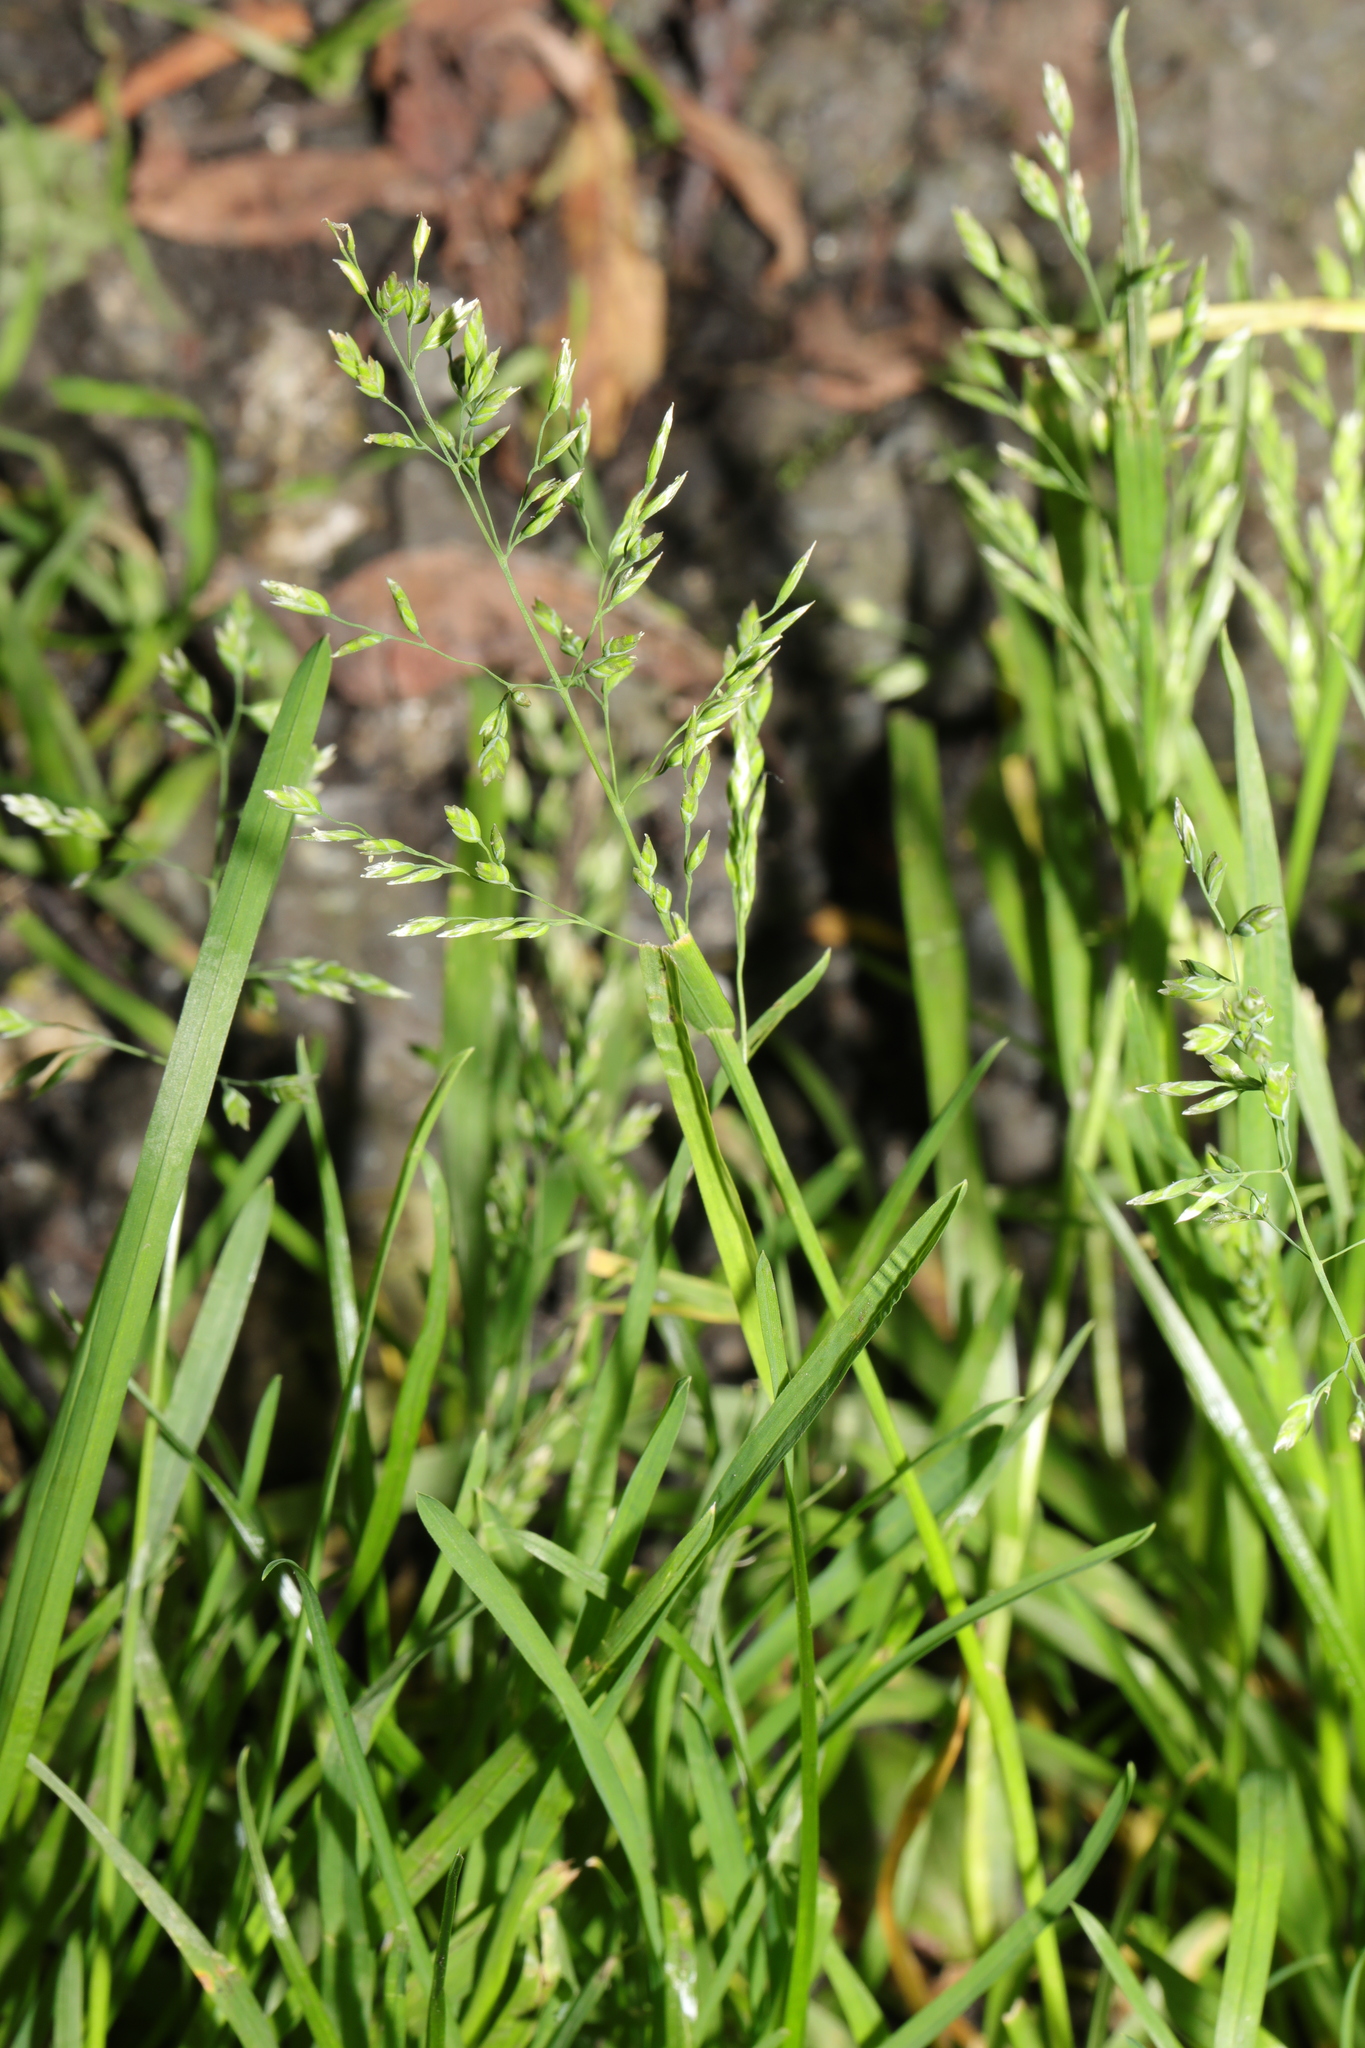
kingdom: Plantae
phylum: Tracheophyta
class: Liliopsida
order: Poales
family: Poaceae
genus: Poa
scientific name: Poa annua
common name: Annual bluegrass
